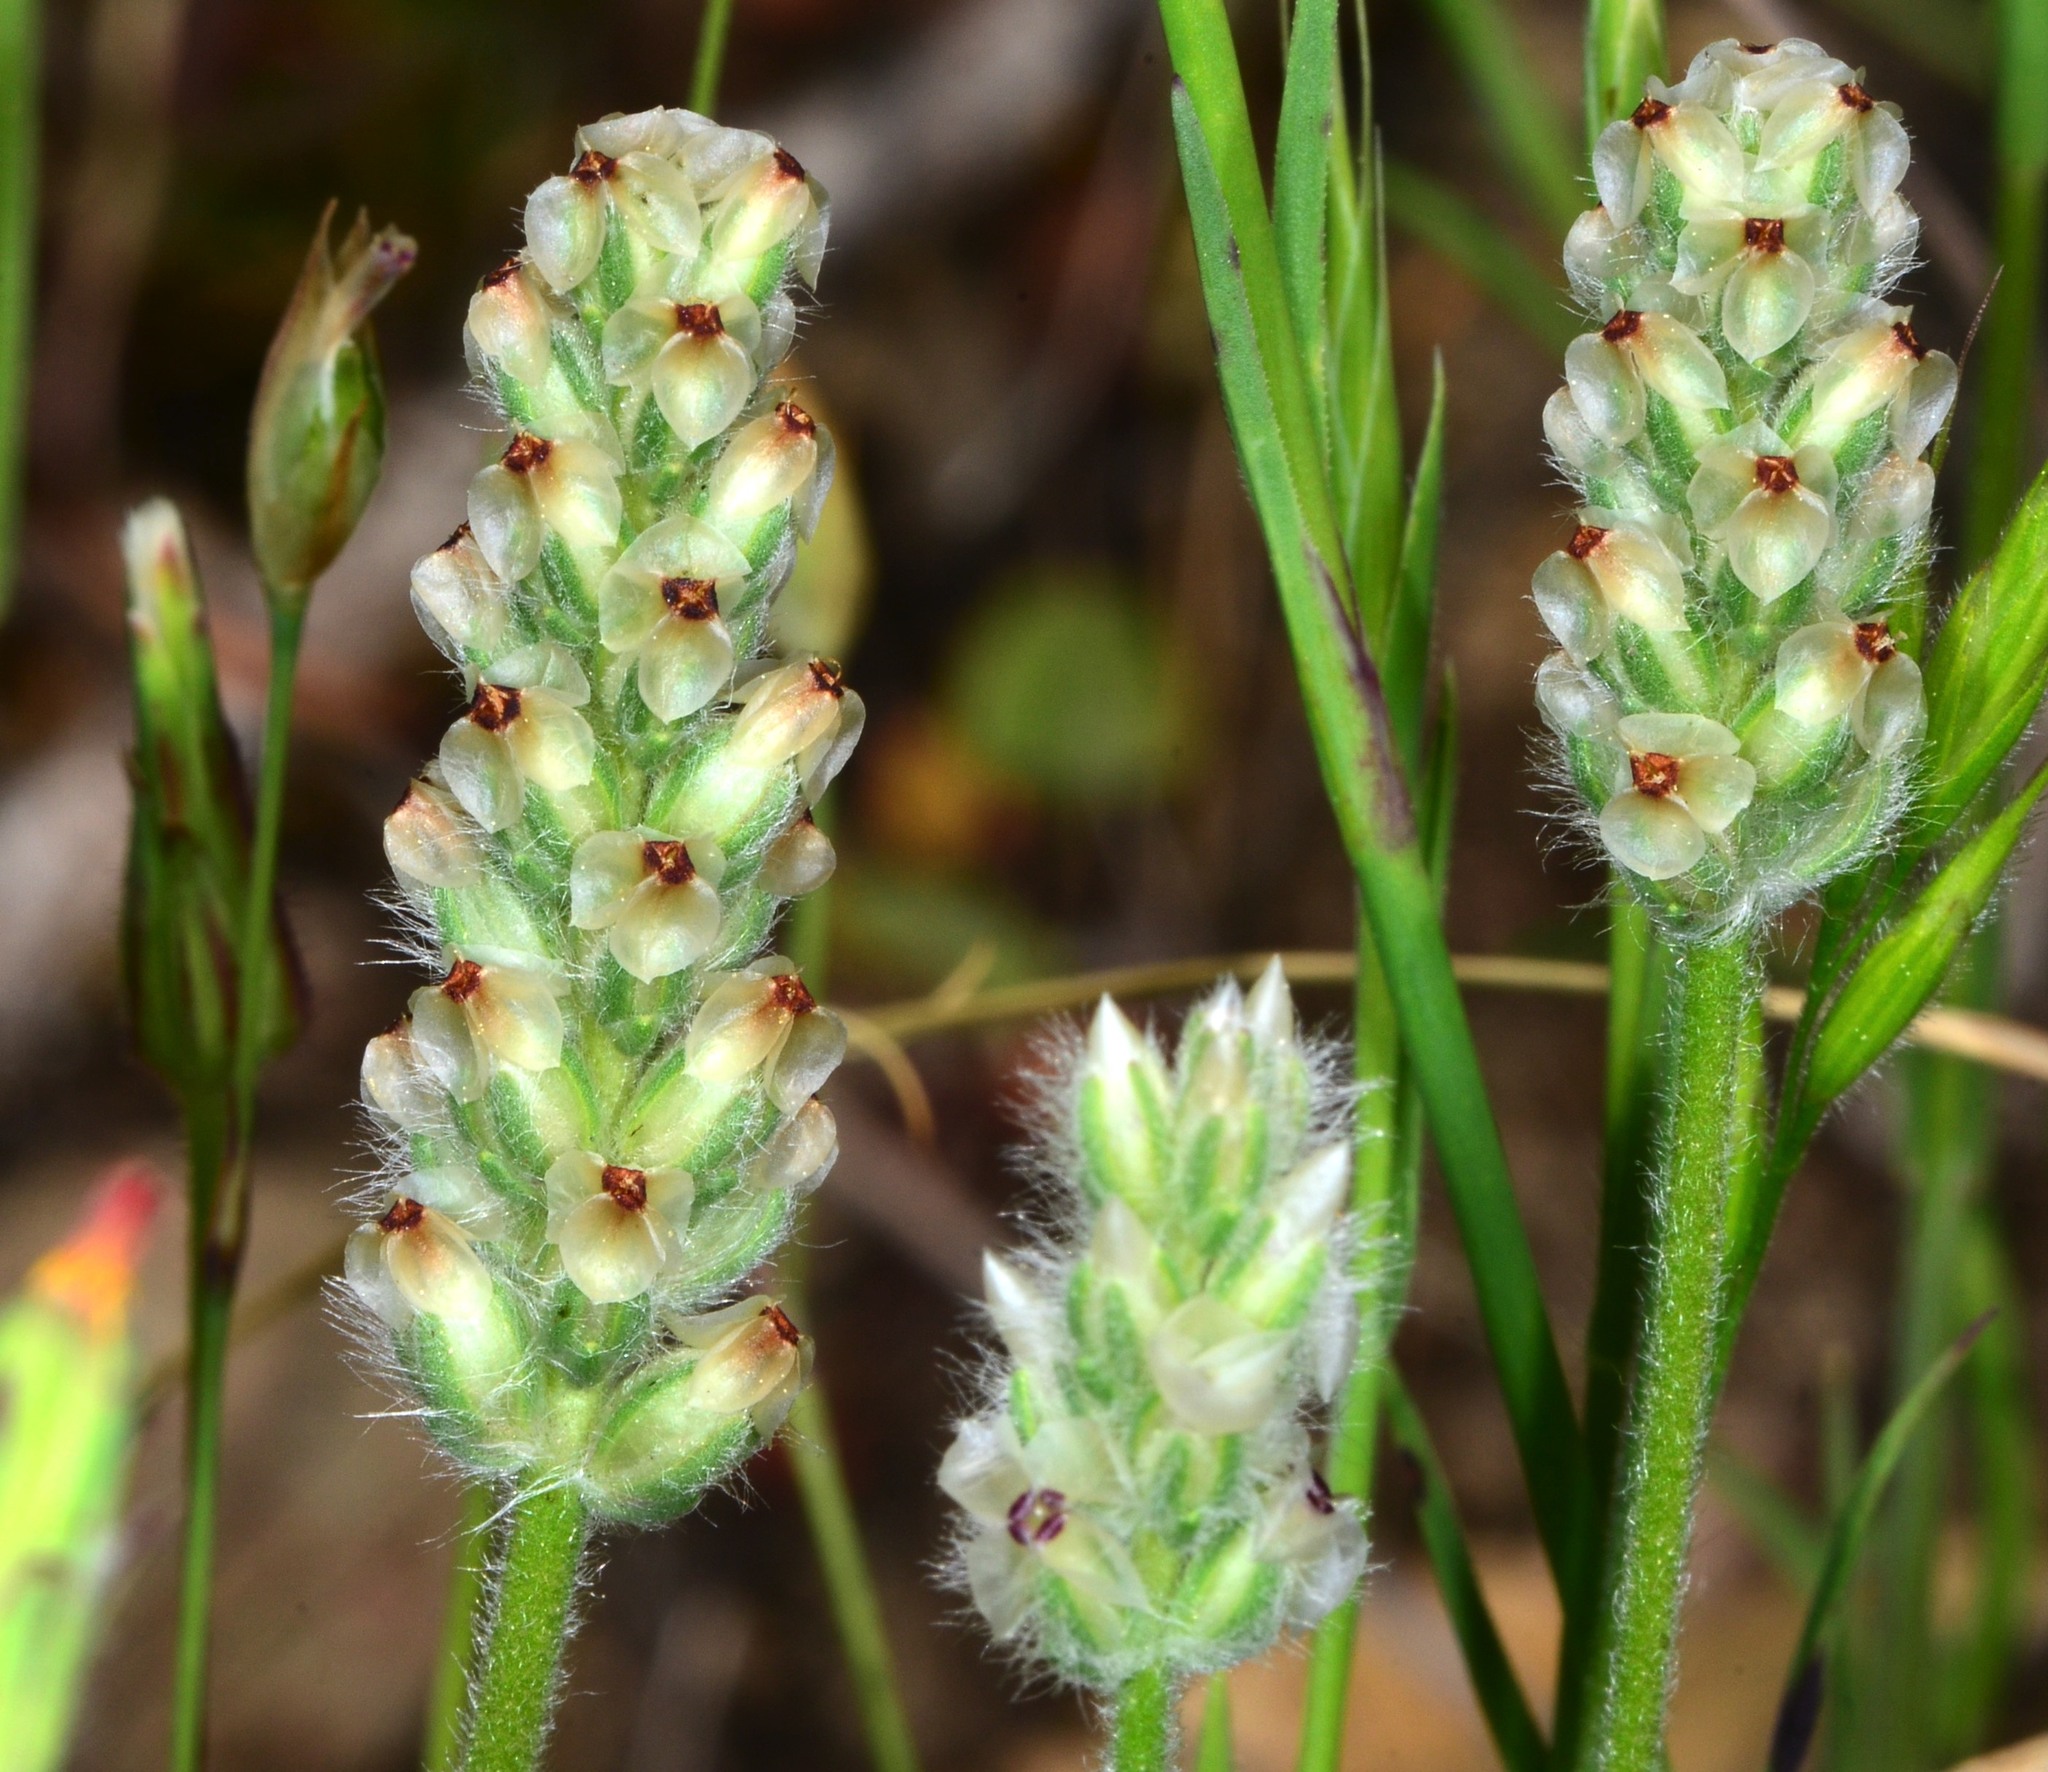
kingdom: Plantae
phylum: Tracheophyta
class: Magnoliopsida
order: Lamiales
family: Plantaginaceae
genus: Plantago
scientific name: Plantago erecta
